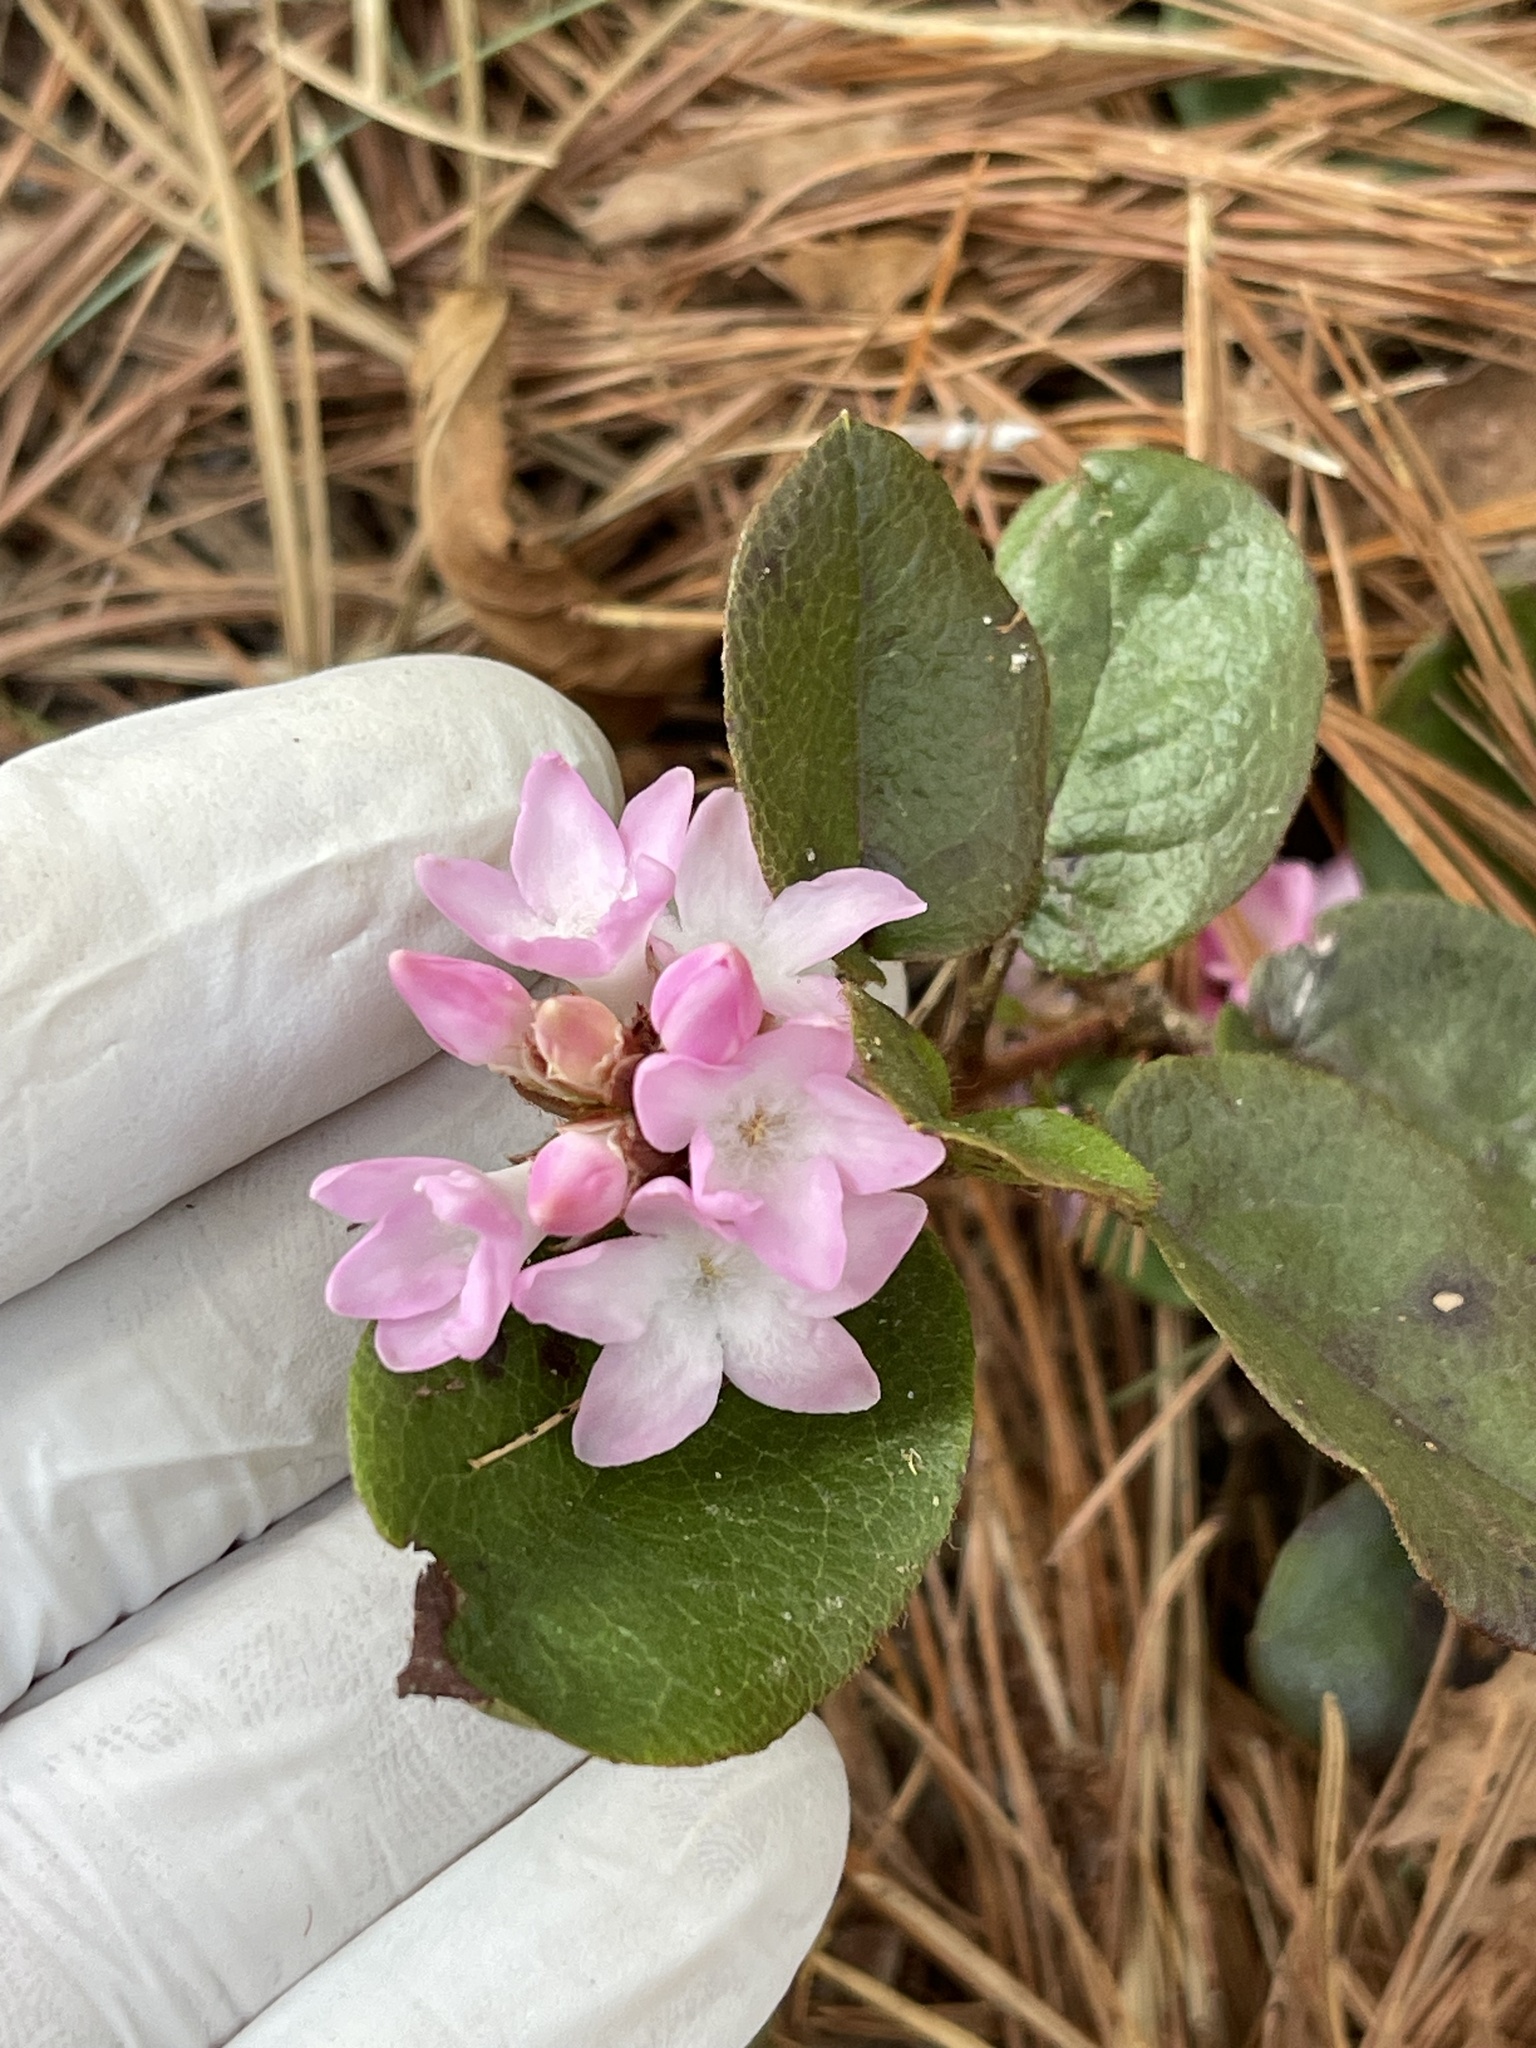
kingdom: Plantae
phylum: Tracheophyta
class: Magnoliopsida
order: Ericales
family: Ericaceae
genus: Epigaea
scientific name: Epigaea repens
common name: Gravelroot
